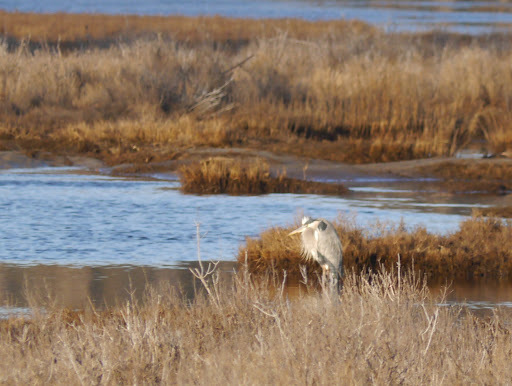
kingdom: Animalia
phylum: Chordata
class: Aves
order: Pelecaniformes
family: Ardeidae
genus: Ardea
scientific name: Ardea herodias
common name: Great blue heron
